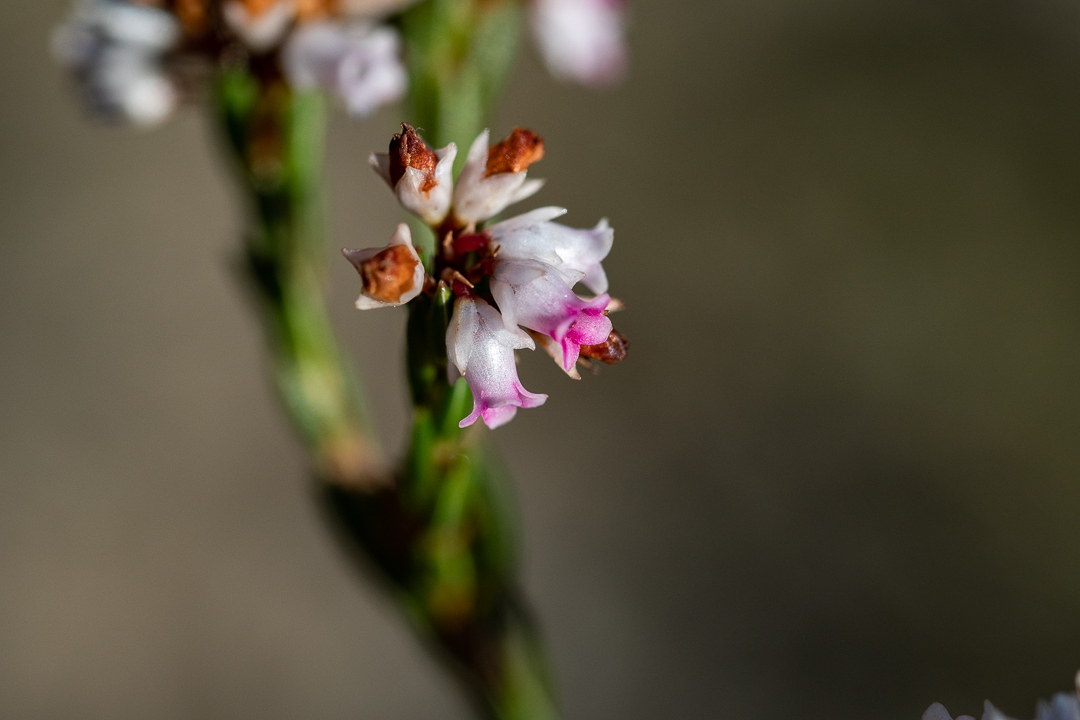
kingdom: Plantae
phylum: Tracheophyta
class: Magnoliopsida
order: Ericales
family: Ericaceae
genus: Erica
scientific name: Erica articularis
